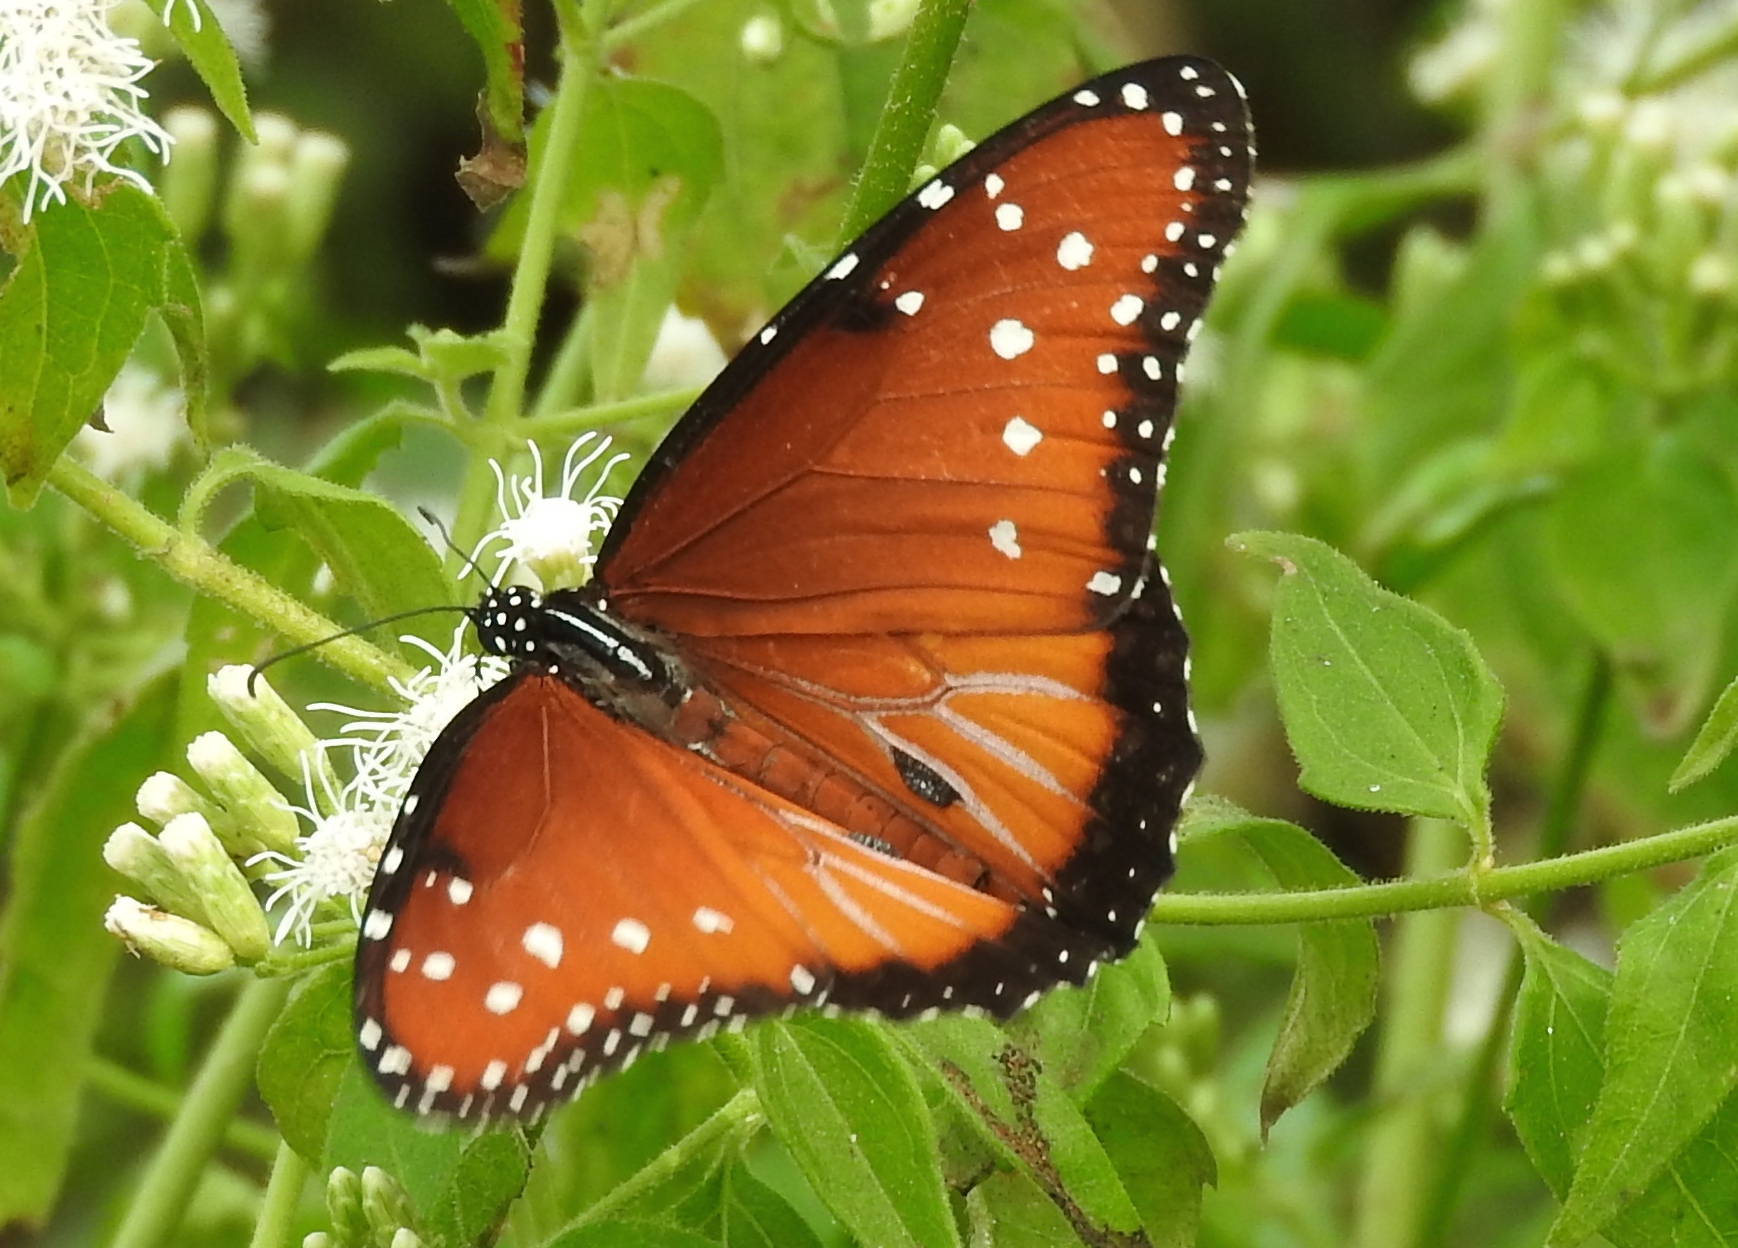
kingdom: Animalia
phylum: Arthropoda
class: Insecta
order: Lepidoptera
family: Nymphalidae
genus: Danaus
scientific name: Danaus gilippus
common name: Queen
